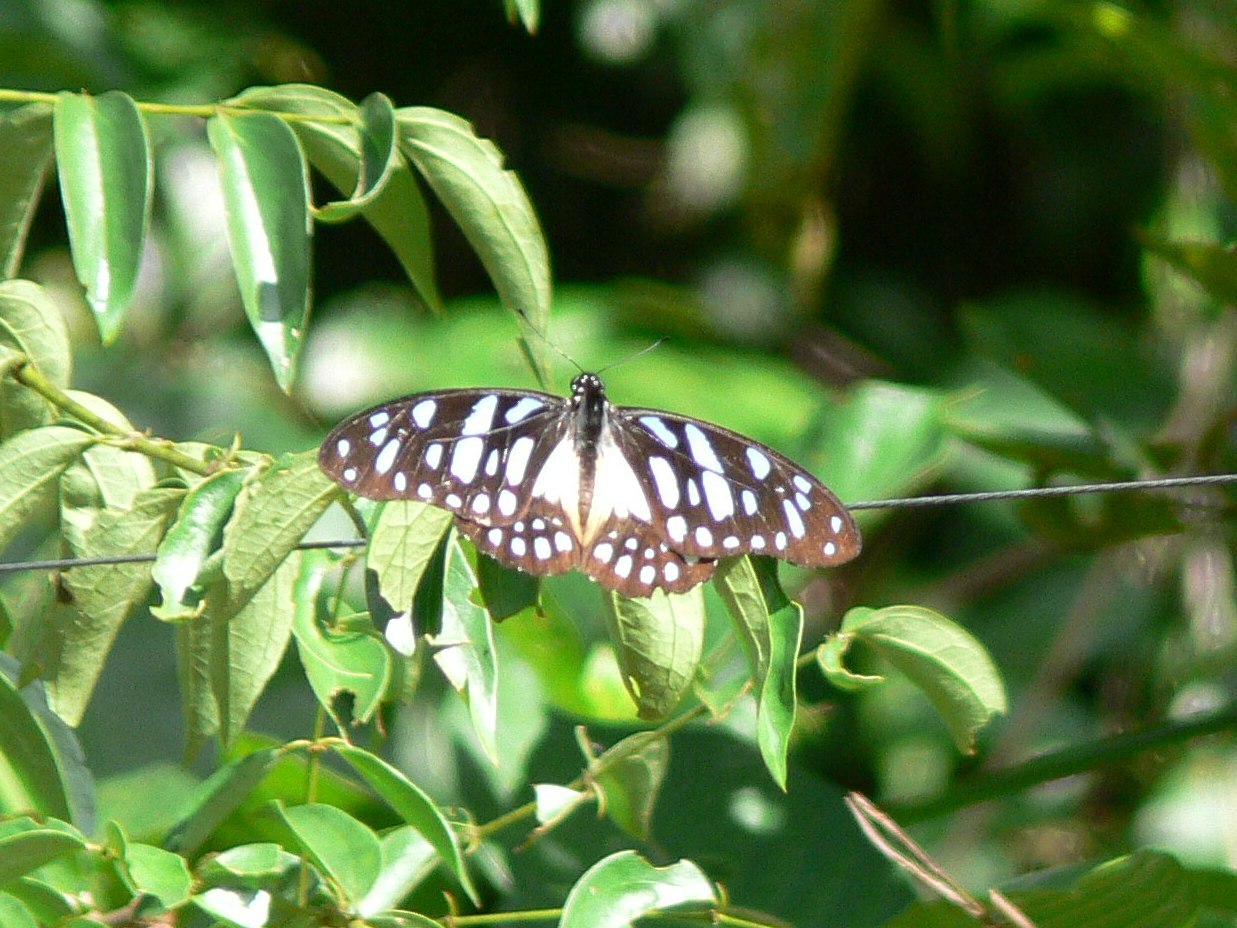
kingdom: Animalia
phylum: Arthropoda
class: Insecta
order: Lepidoptera
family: Papilionidae
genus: Graphium
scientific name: Graphium leonidas
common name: Common graphium
